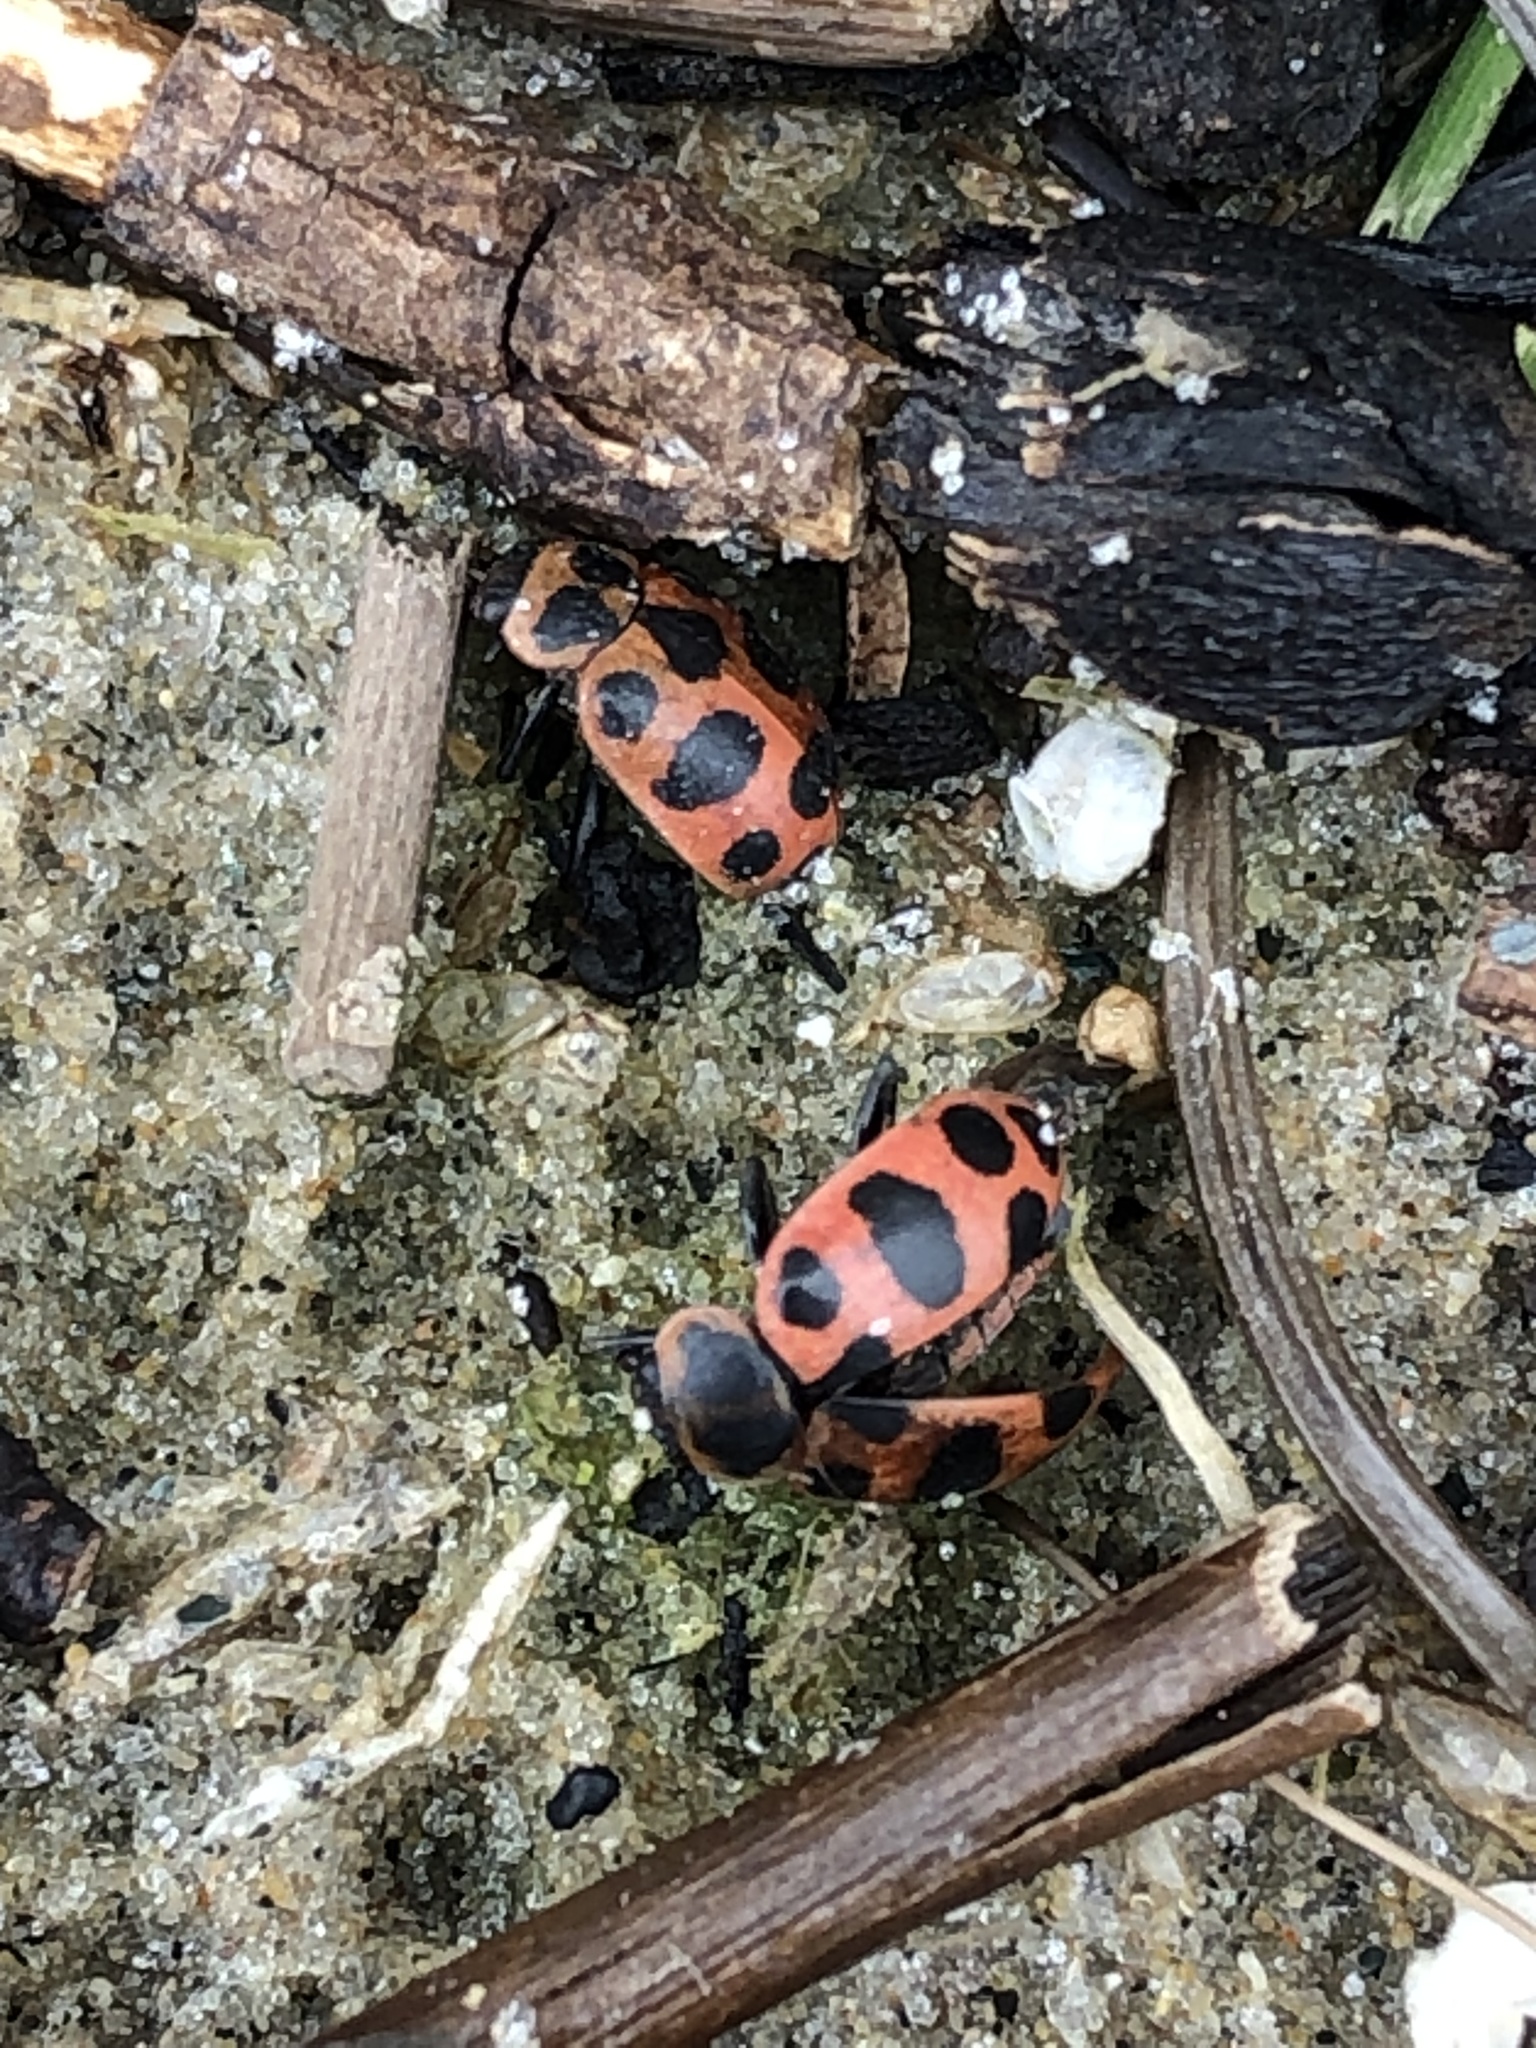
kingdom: Animalia
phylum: Arthropoda
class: Insecta
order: Coleoptera
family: Coccinellidae
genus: Coleomegilla
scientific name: Coleomegilla maculata
